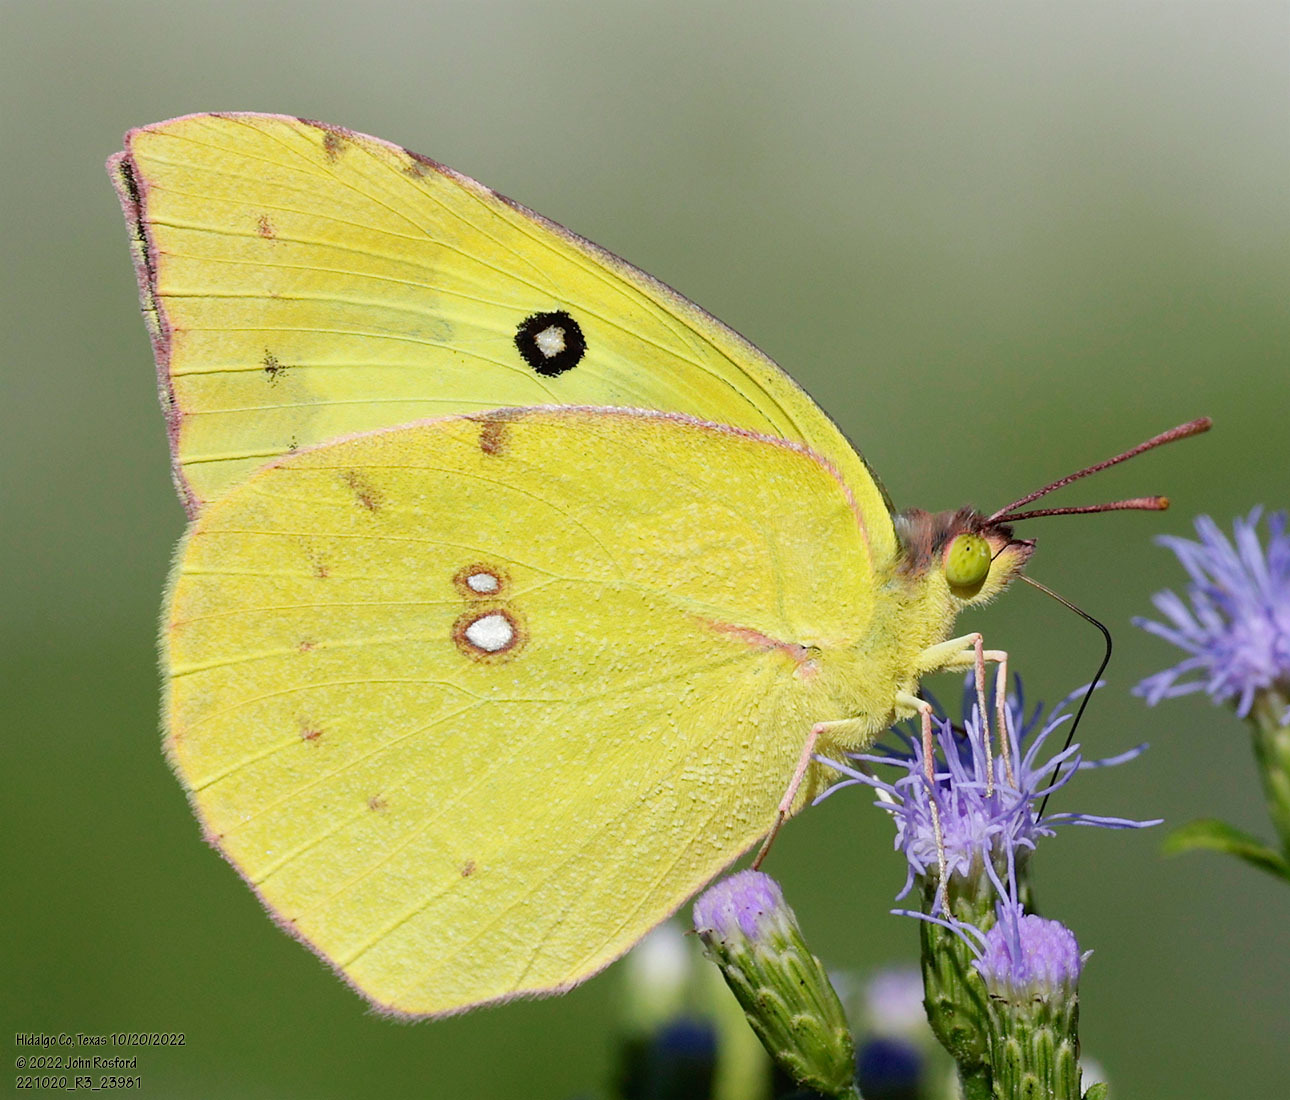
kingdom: Animalia
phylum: Arthropoda
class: Insecta
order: Lepidoptera
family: Pieridae
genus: Zerene
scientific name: Zerene cesonia
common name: Southern dogface
